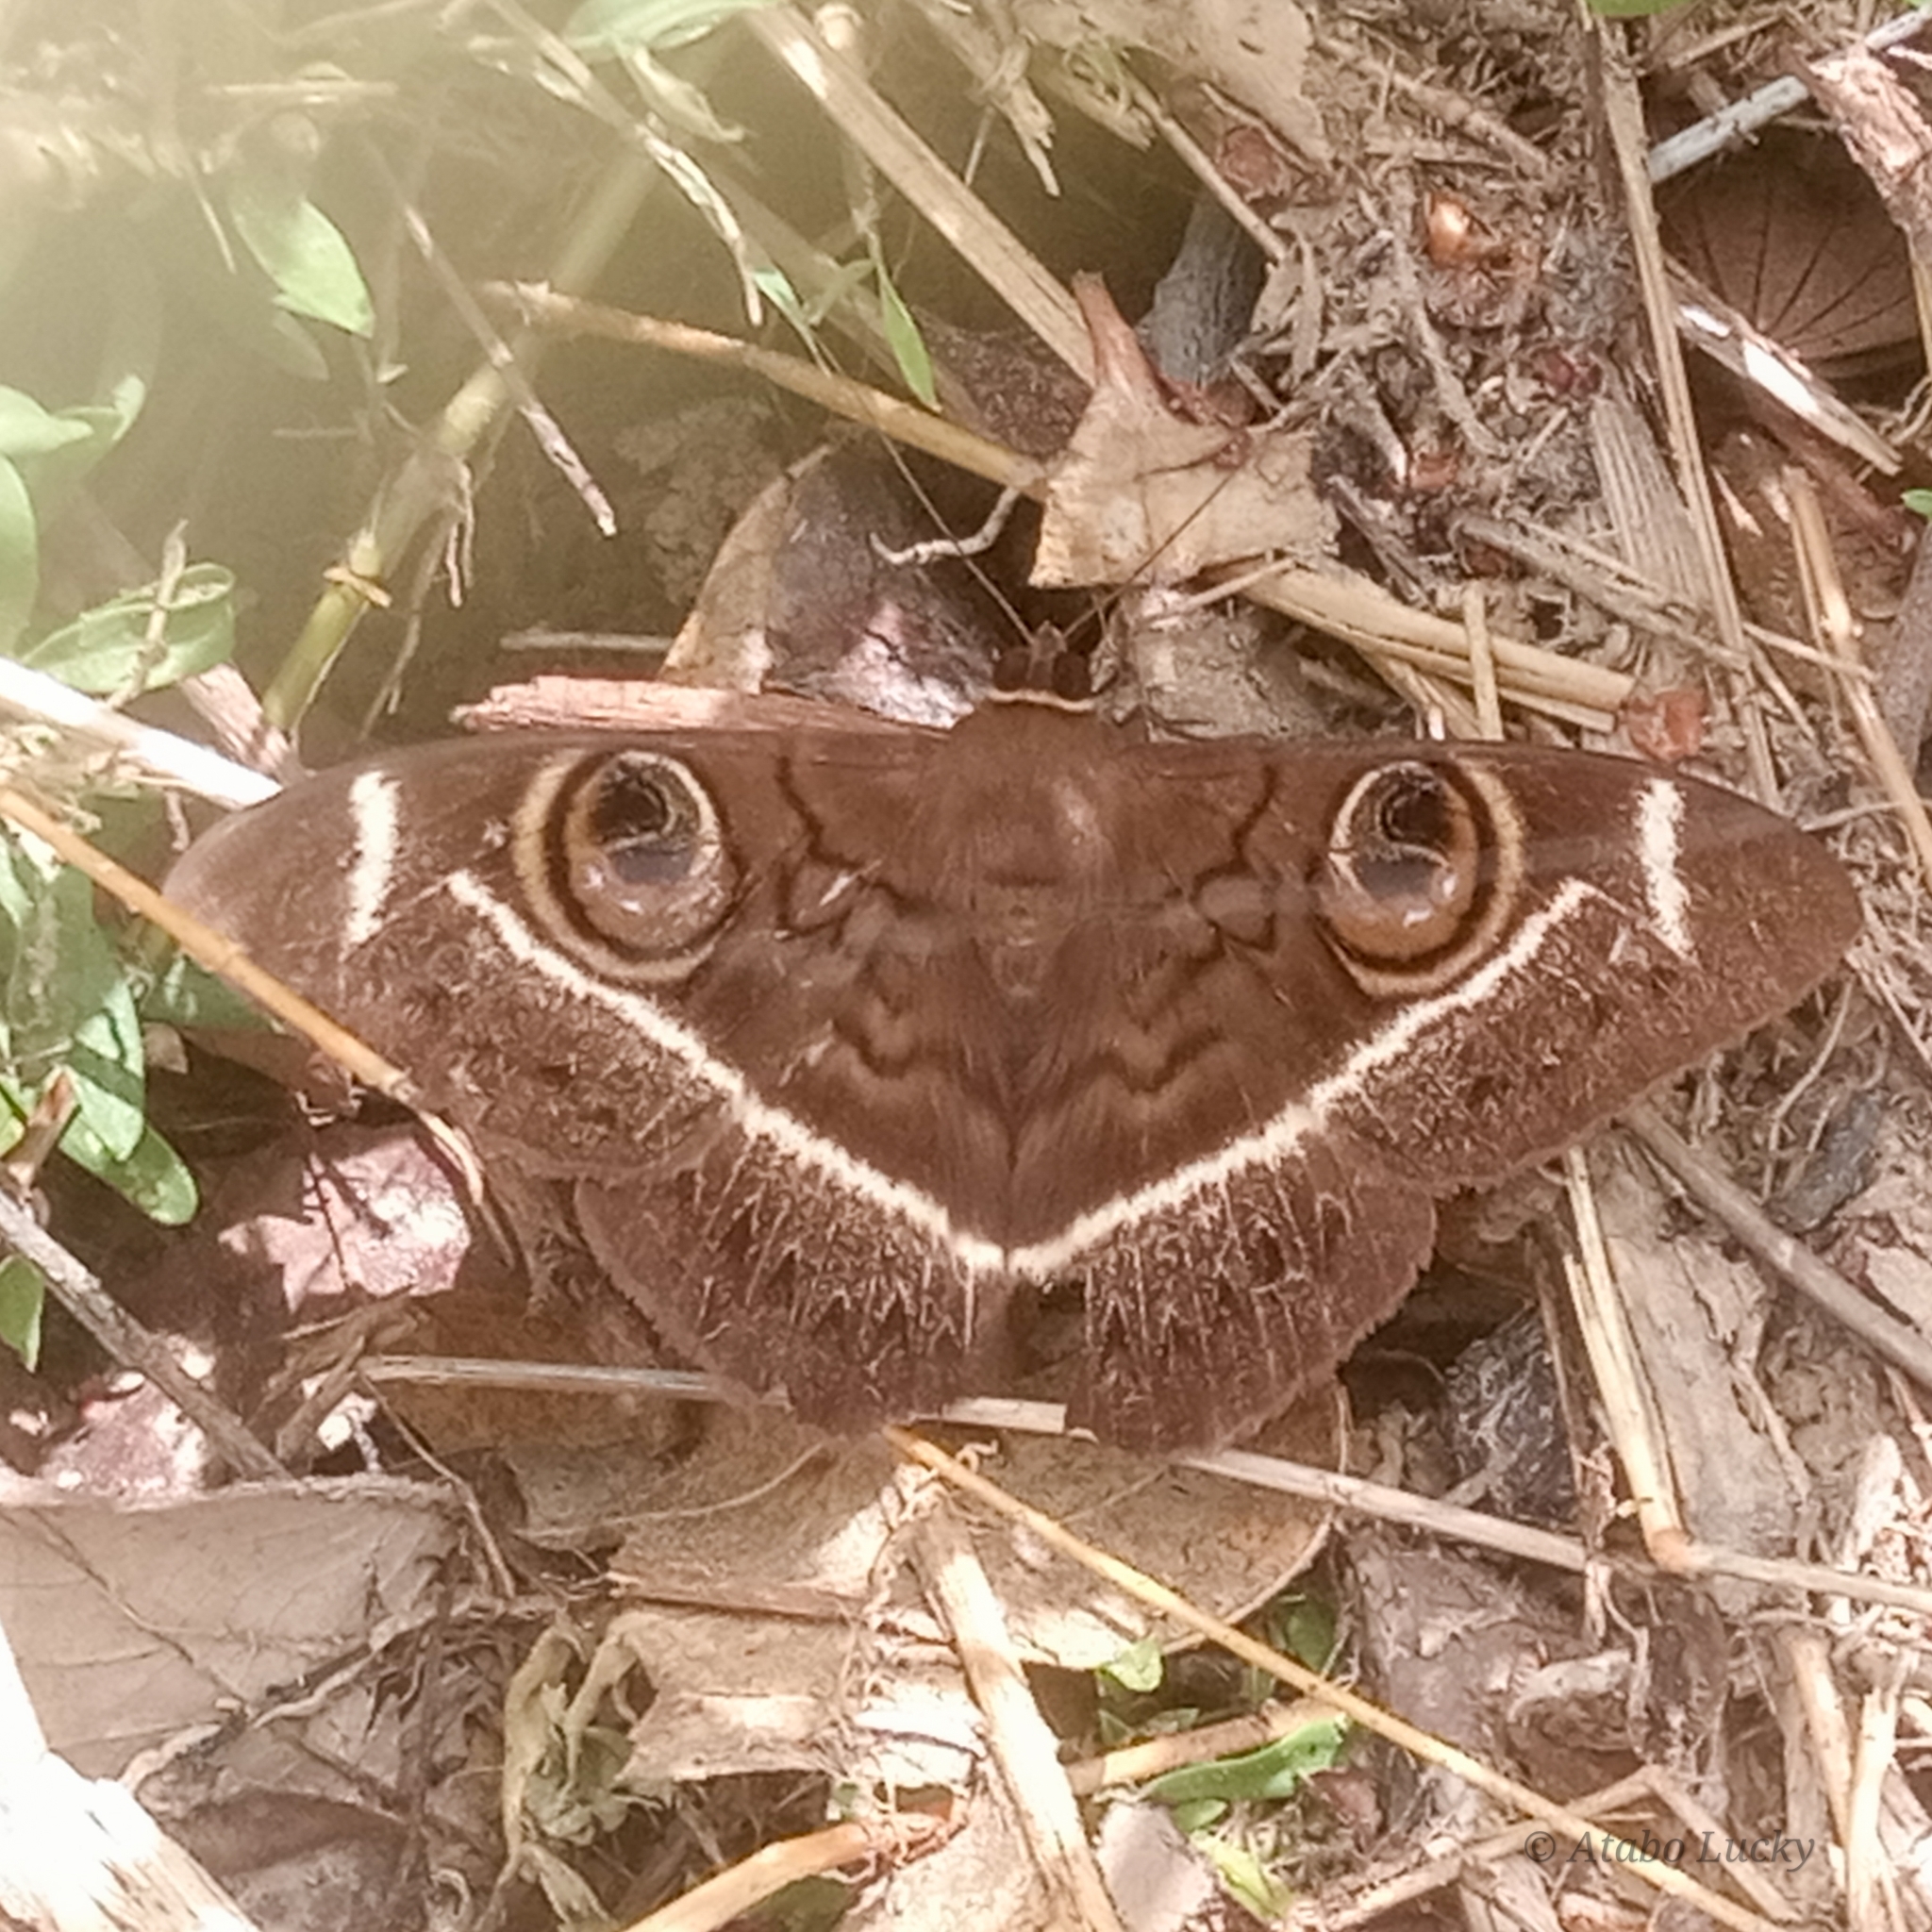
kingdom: Animalia
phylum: Arthropoda
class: Insecta
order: Lepidoptera
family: Erebidae
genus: Cyligramma
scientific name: Cyligramma latona
